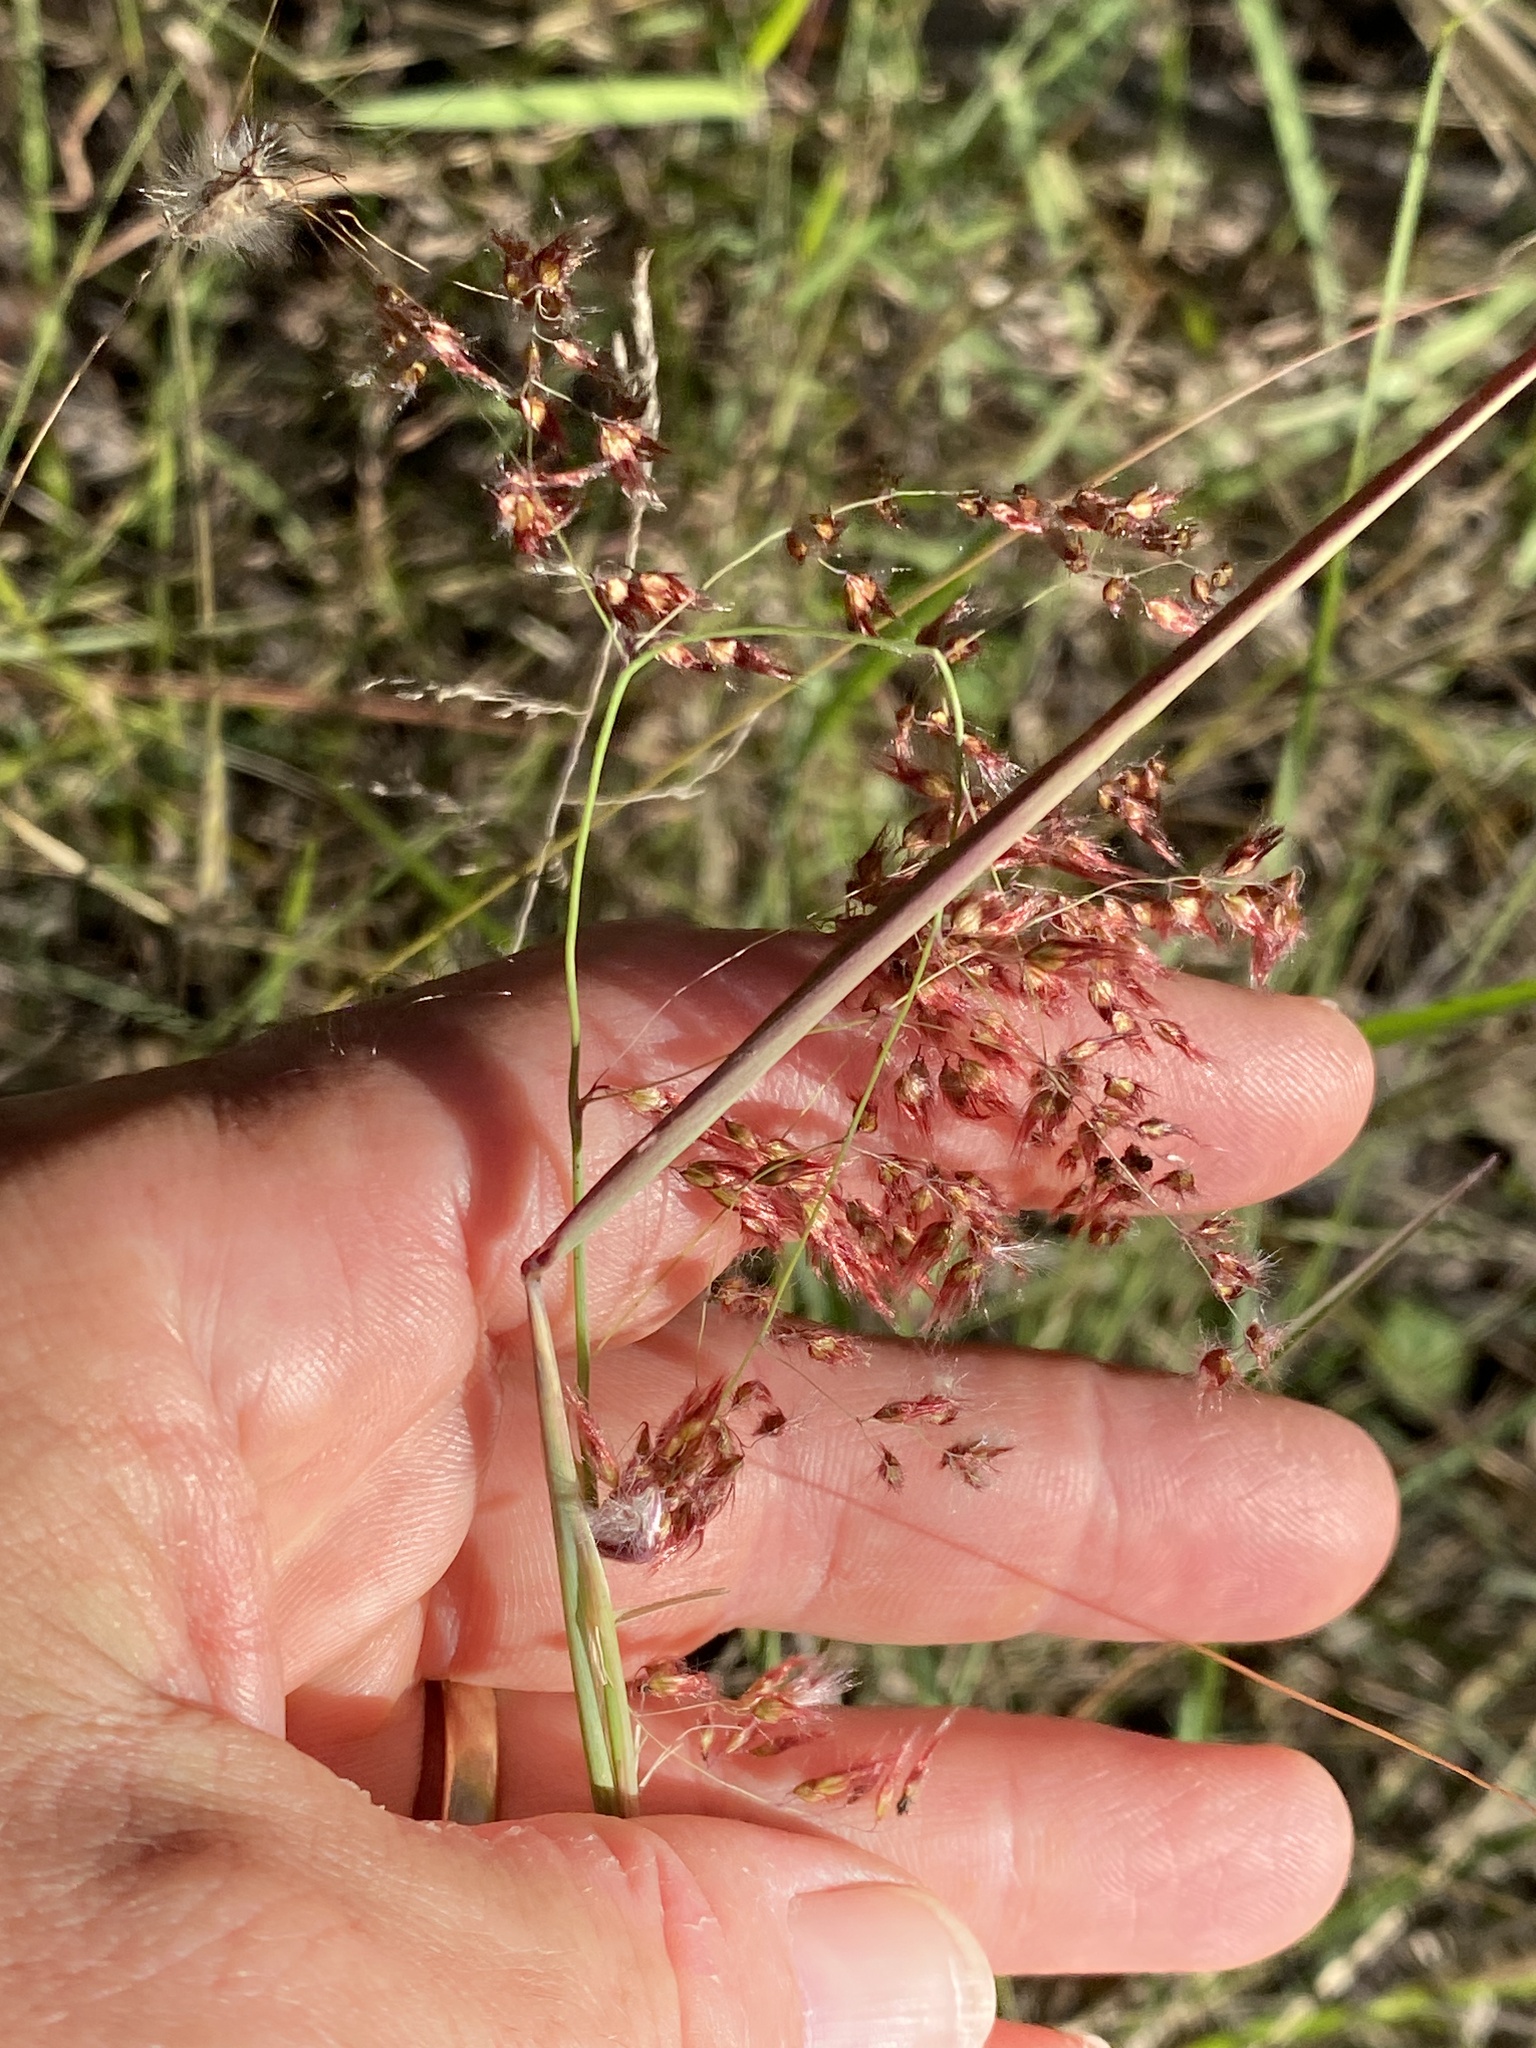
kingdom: Plantae
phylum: Tracheophyta
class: Liliopsida
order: Poales
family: Poaceae
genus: Melinis
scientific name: Melinis repens
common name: Rose natal grass
